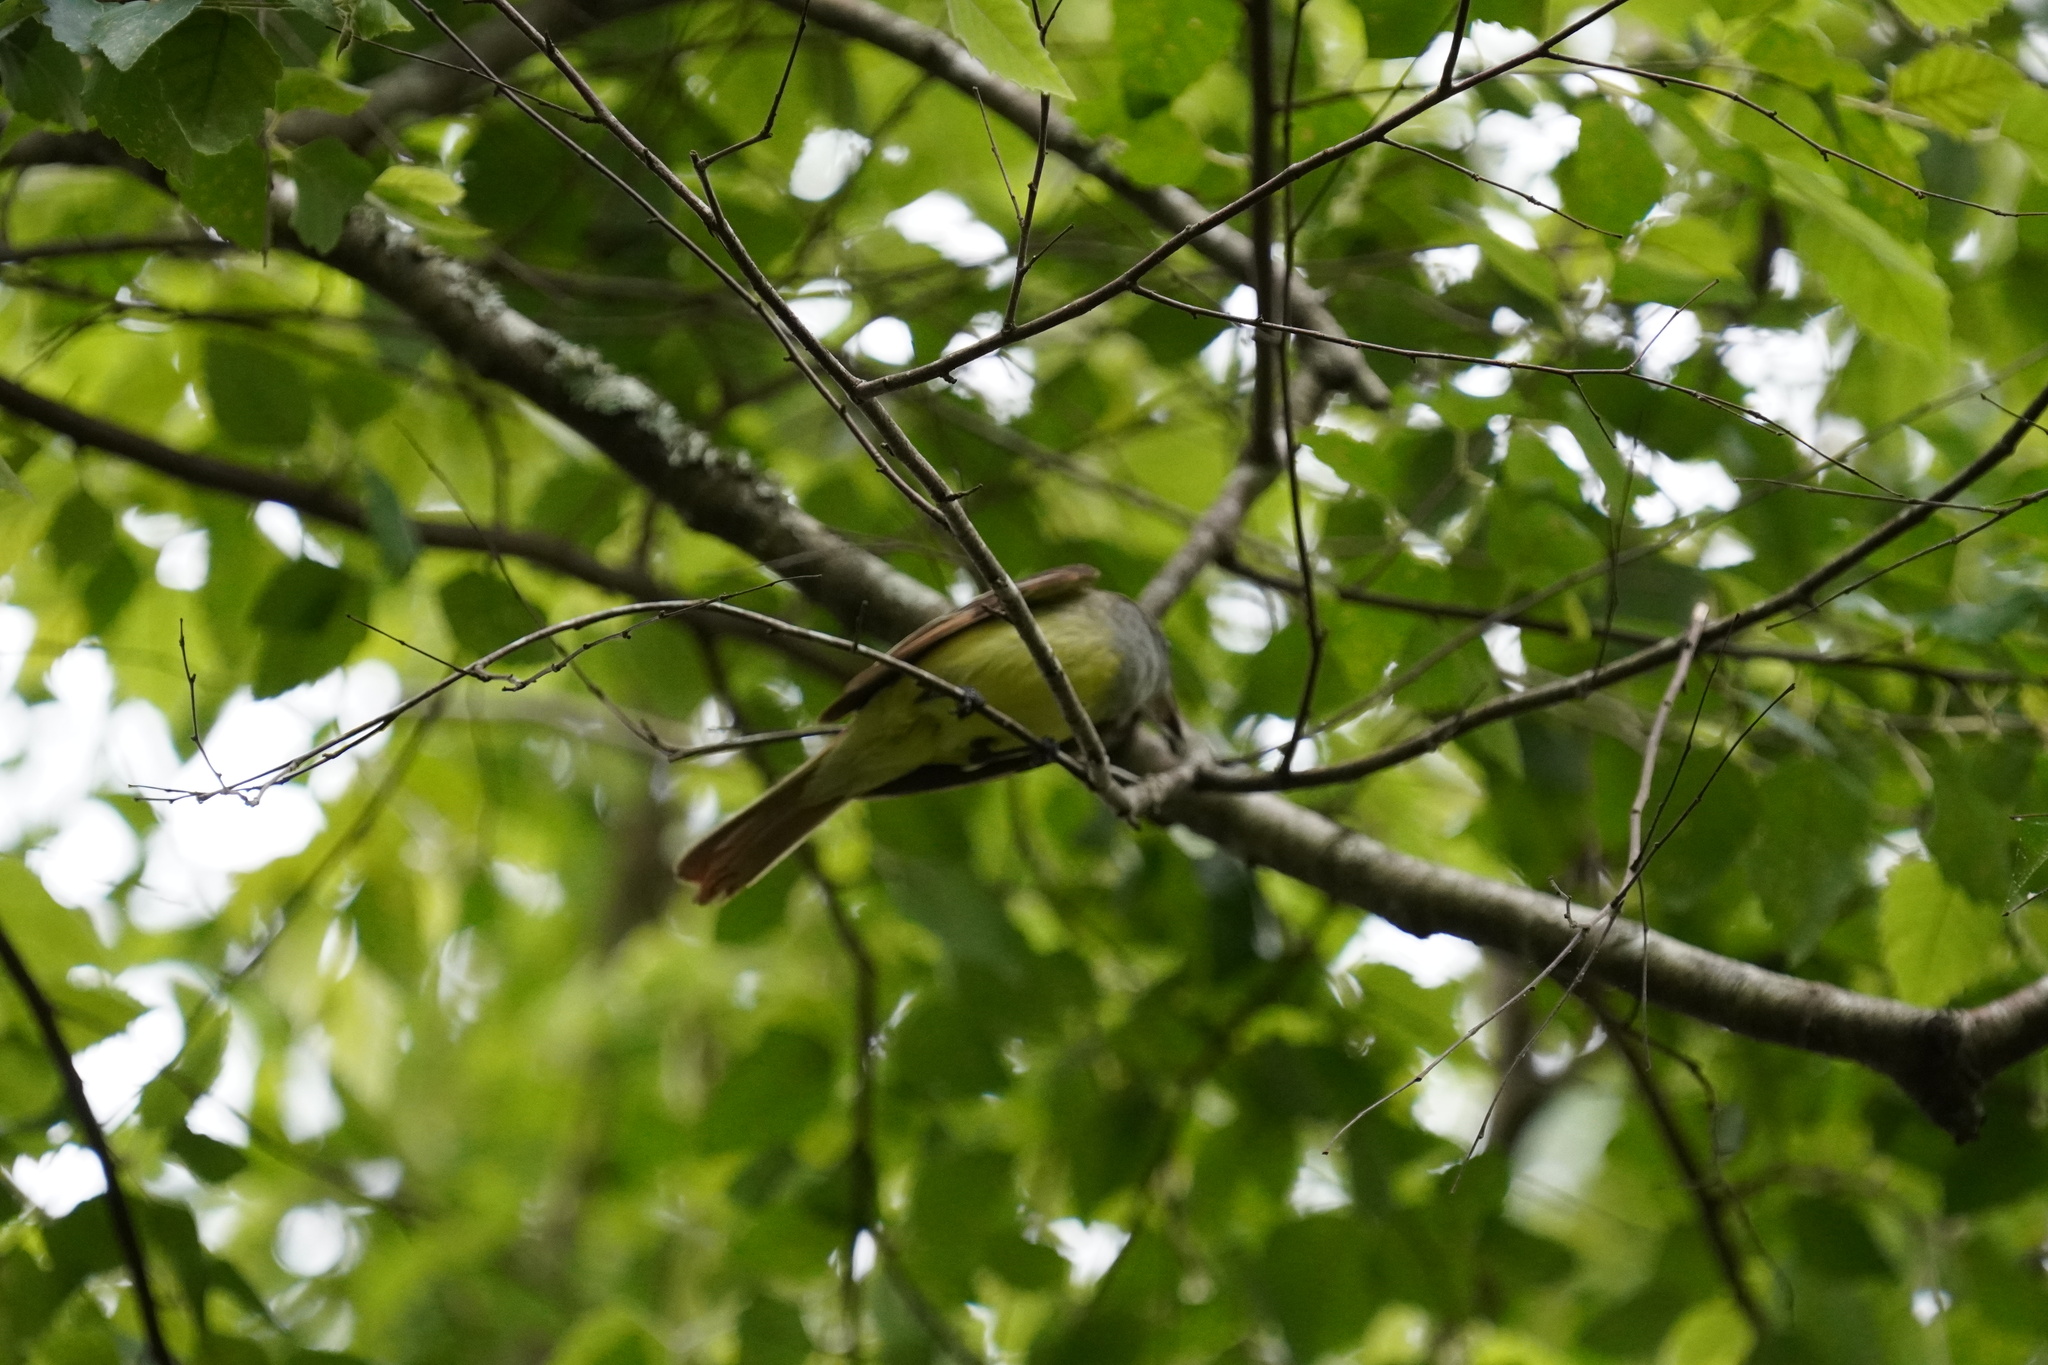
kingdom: Animalia
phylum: Chordata
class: Aves
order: Passeriformes
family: Tyrannidae
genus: Myiarchus
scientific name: Myiarchus crinitus
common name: Great crested flycatcher
